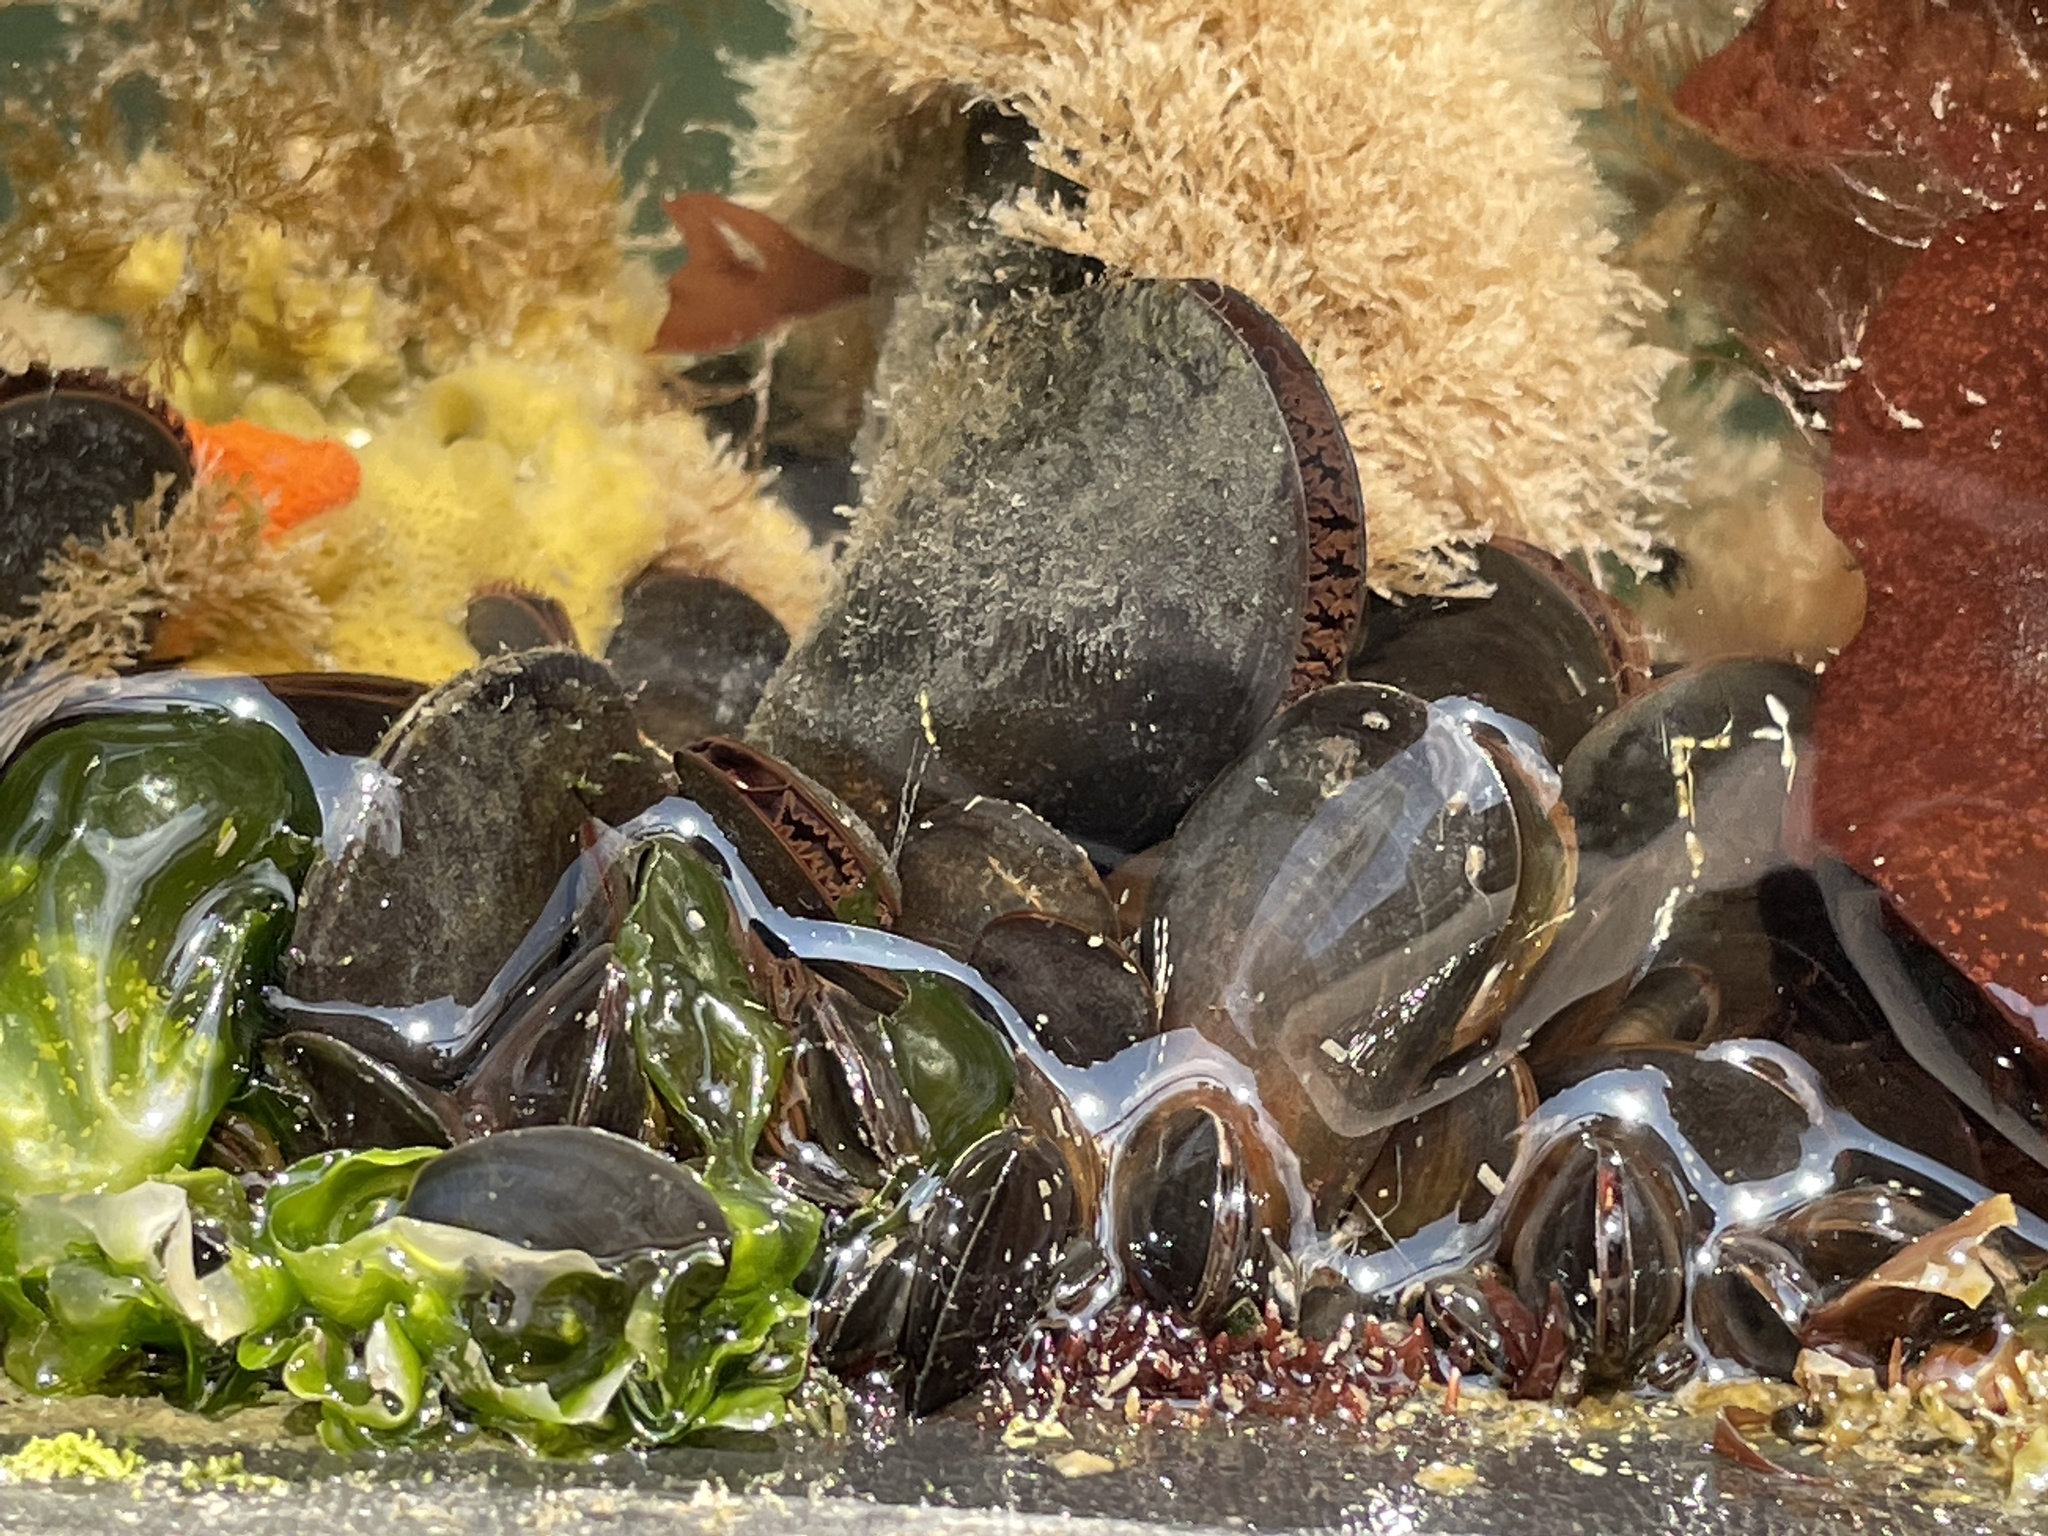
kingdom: Animalia
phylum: Mollusca
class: Bivalvia
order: Mytilida
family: Mytilidae
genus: Mytilus
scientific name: Mytilus edulis
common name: Blue mussel
